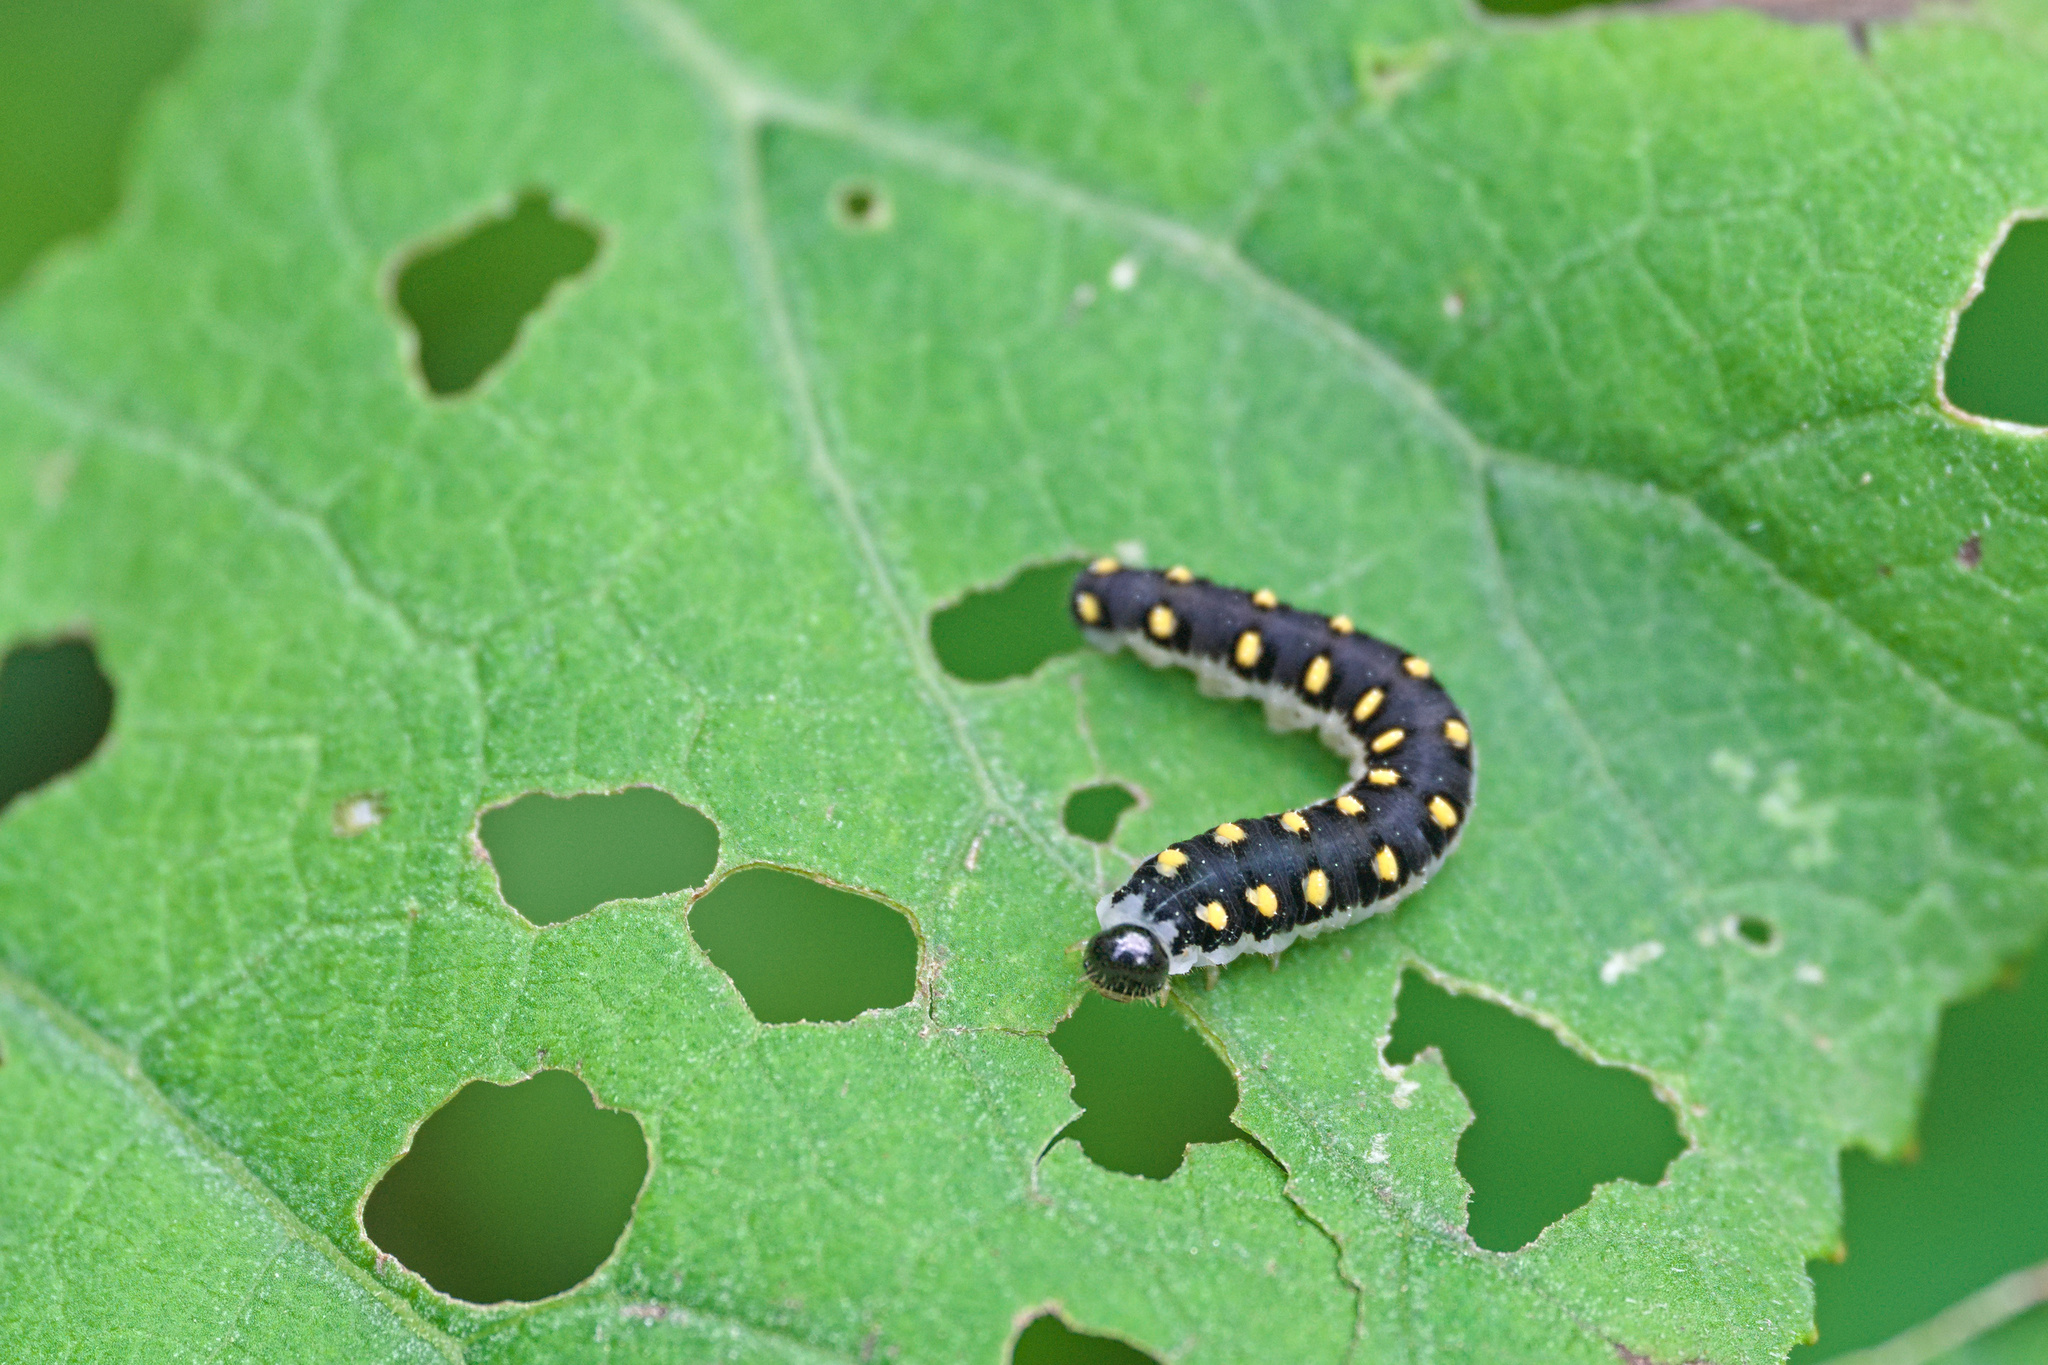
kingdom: Animalia
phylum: Arthropoda
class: Insecta
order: Hymenoptera
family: Tenthredinidae
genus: Tenthredo
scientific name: Tenthredo mandibularis
